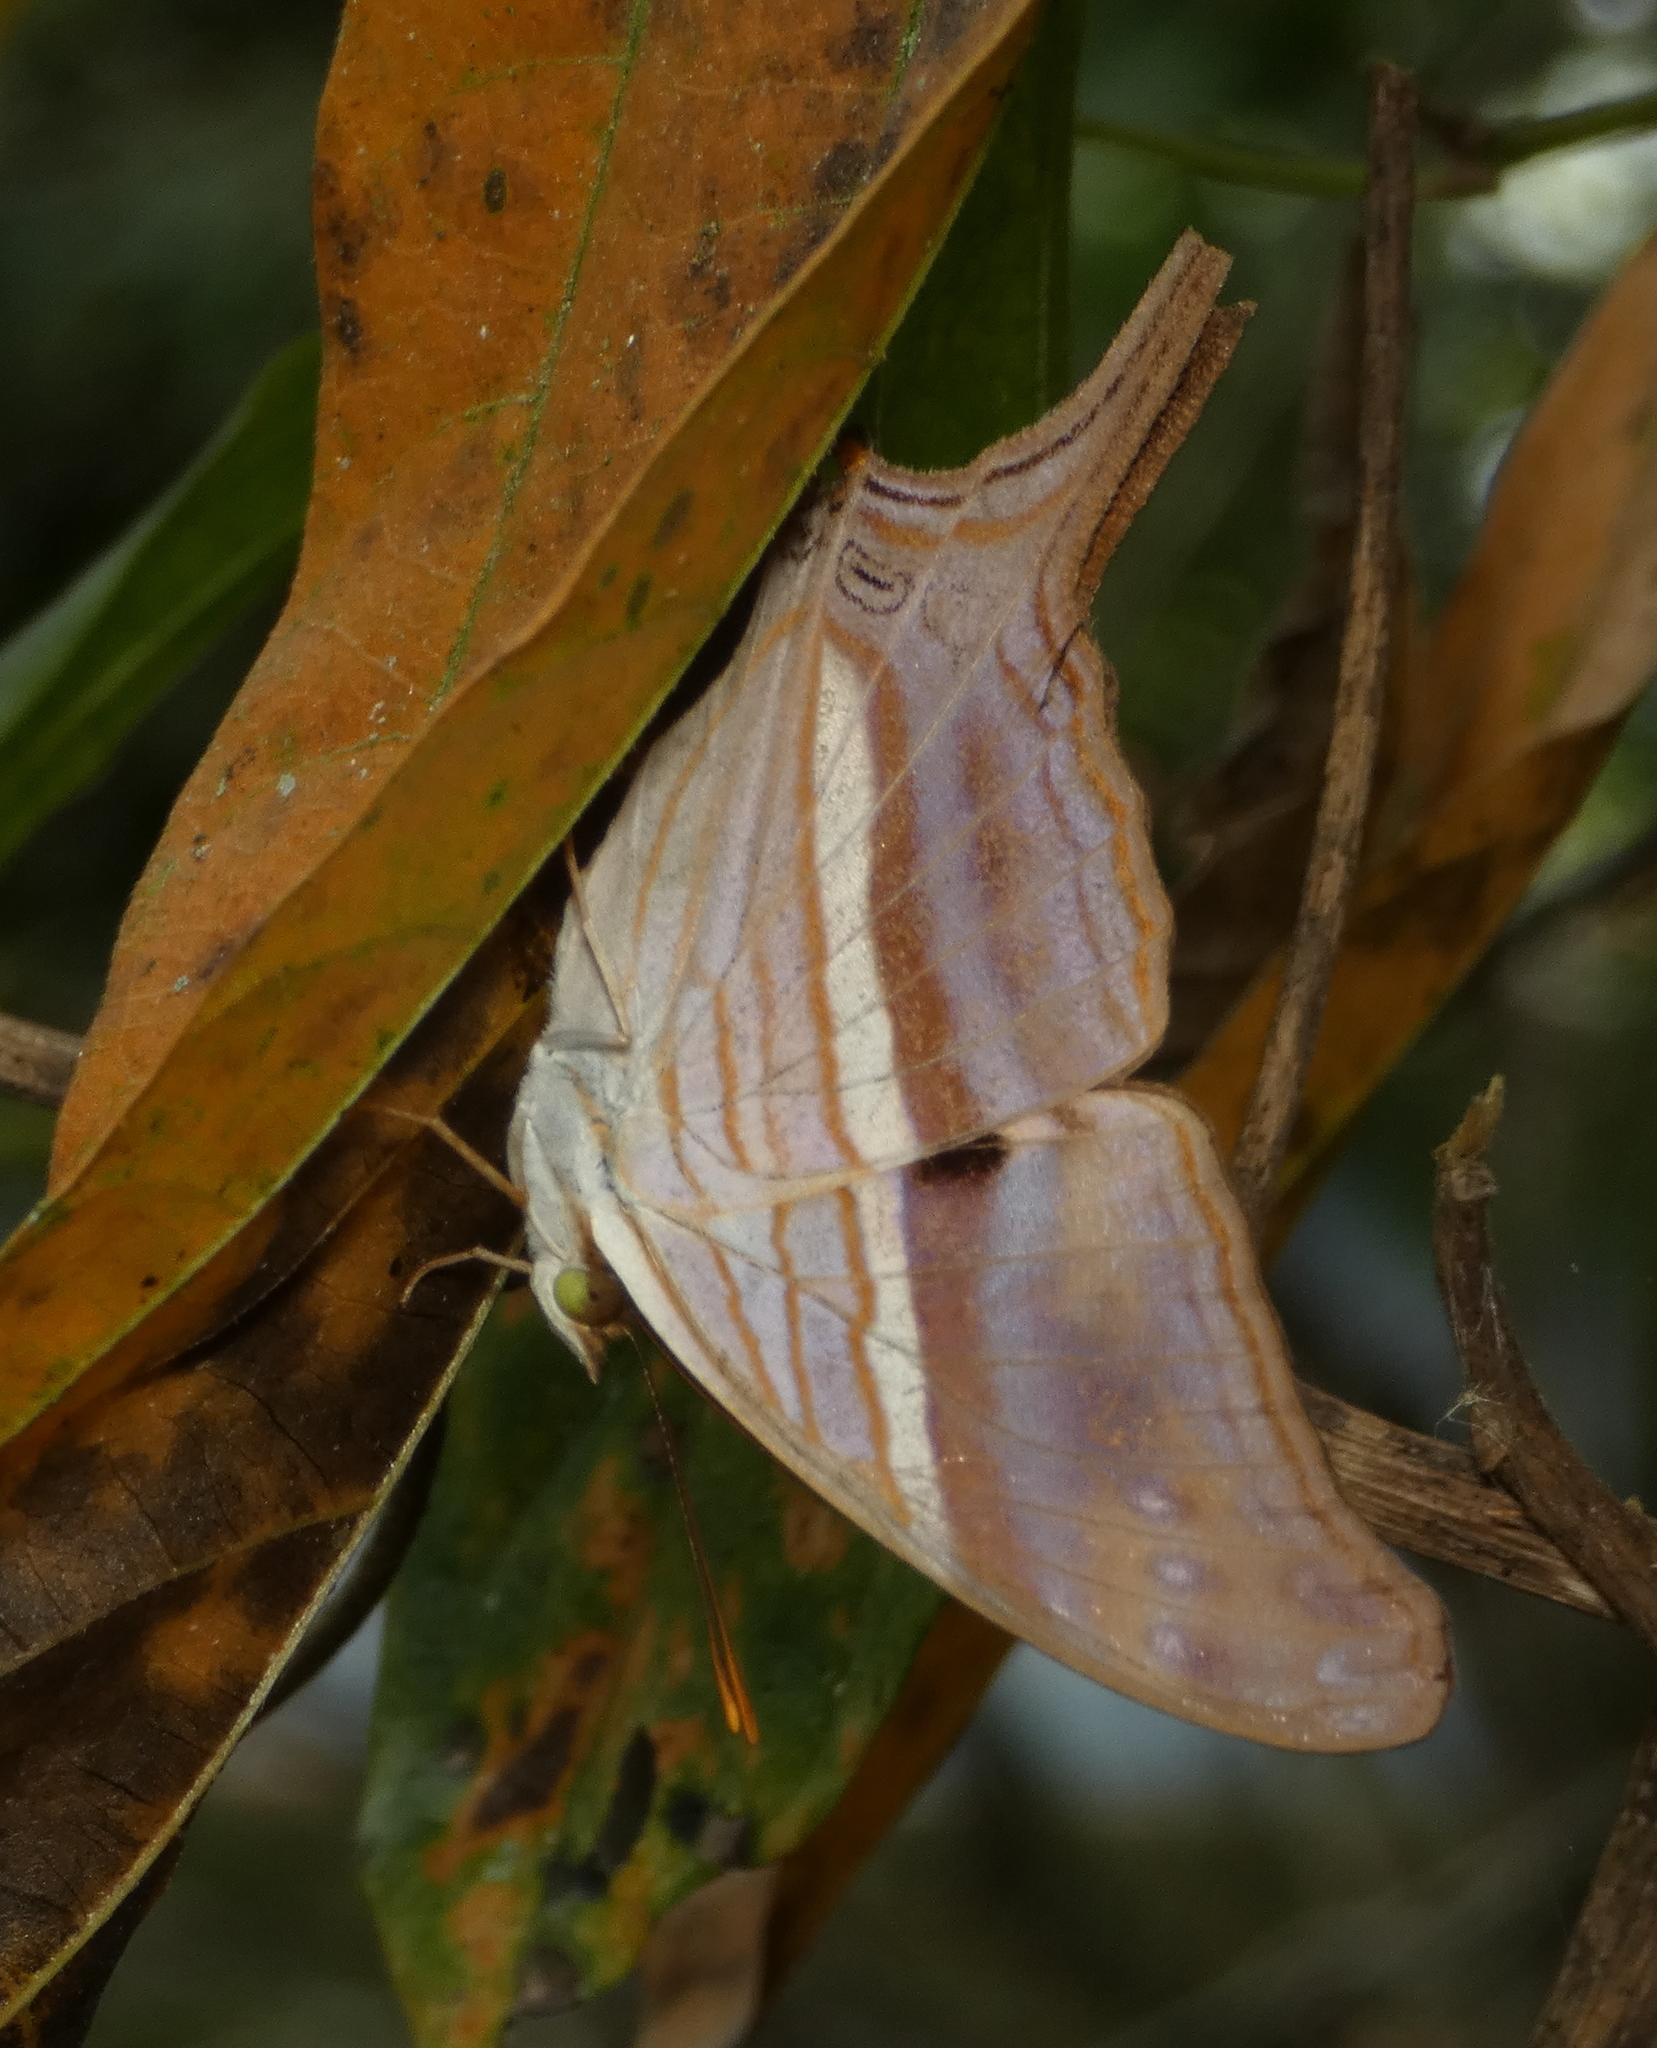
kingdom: Animalia
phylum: Arthropoda
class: Insecta
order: Lepidoptera
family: Nymphalidae
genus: Marpesia
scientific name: Marpesia chiron
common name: Many-banded daggerwing
